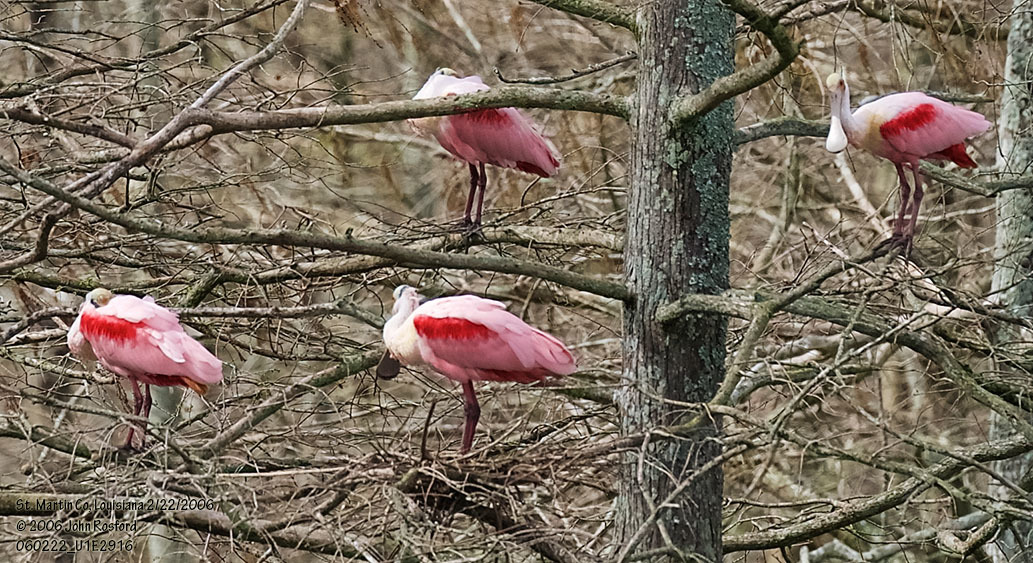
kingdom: Animalia
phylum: Chordata
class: Aves
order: Pelecaniformes
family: Threskiornithidae
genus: Platalea
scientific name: Platalea ajaja
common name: Roseate spoonbill
